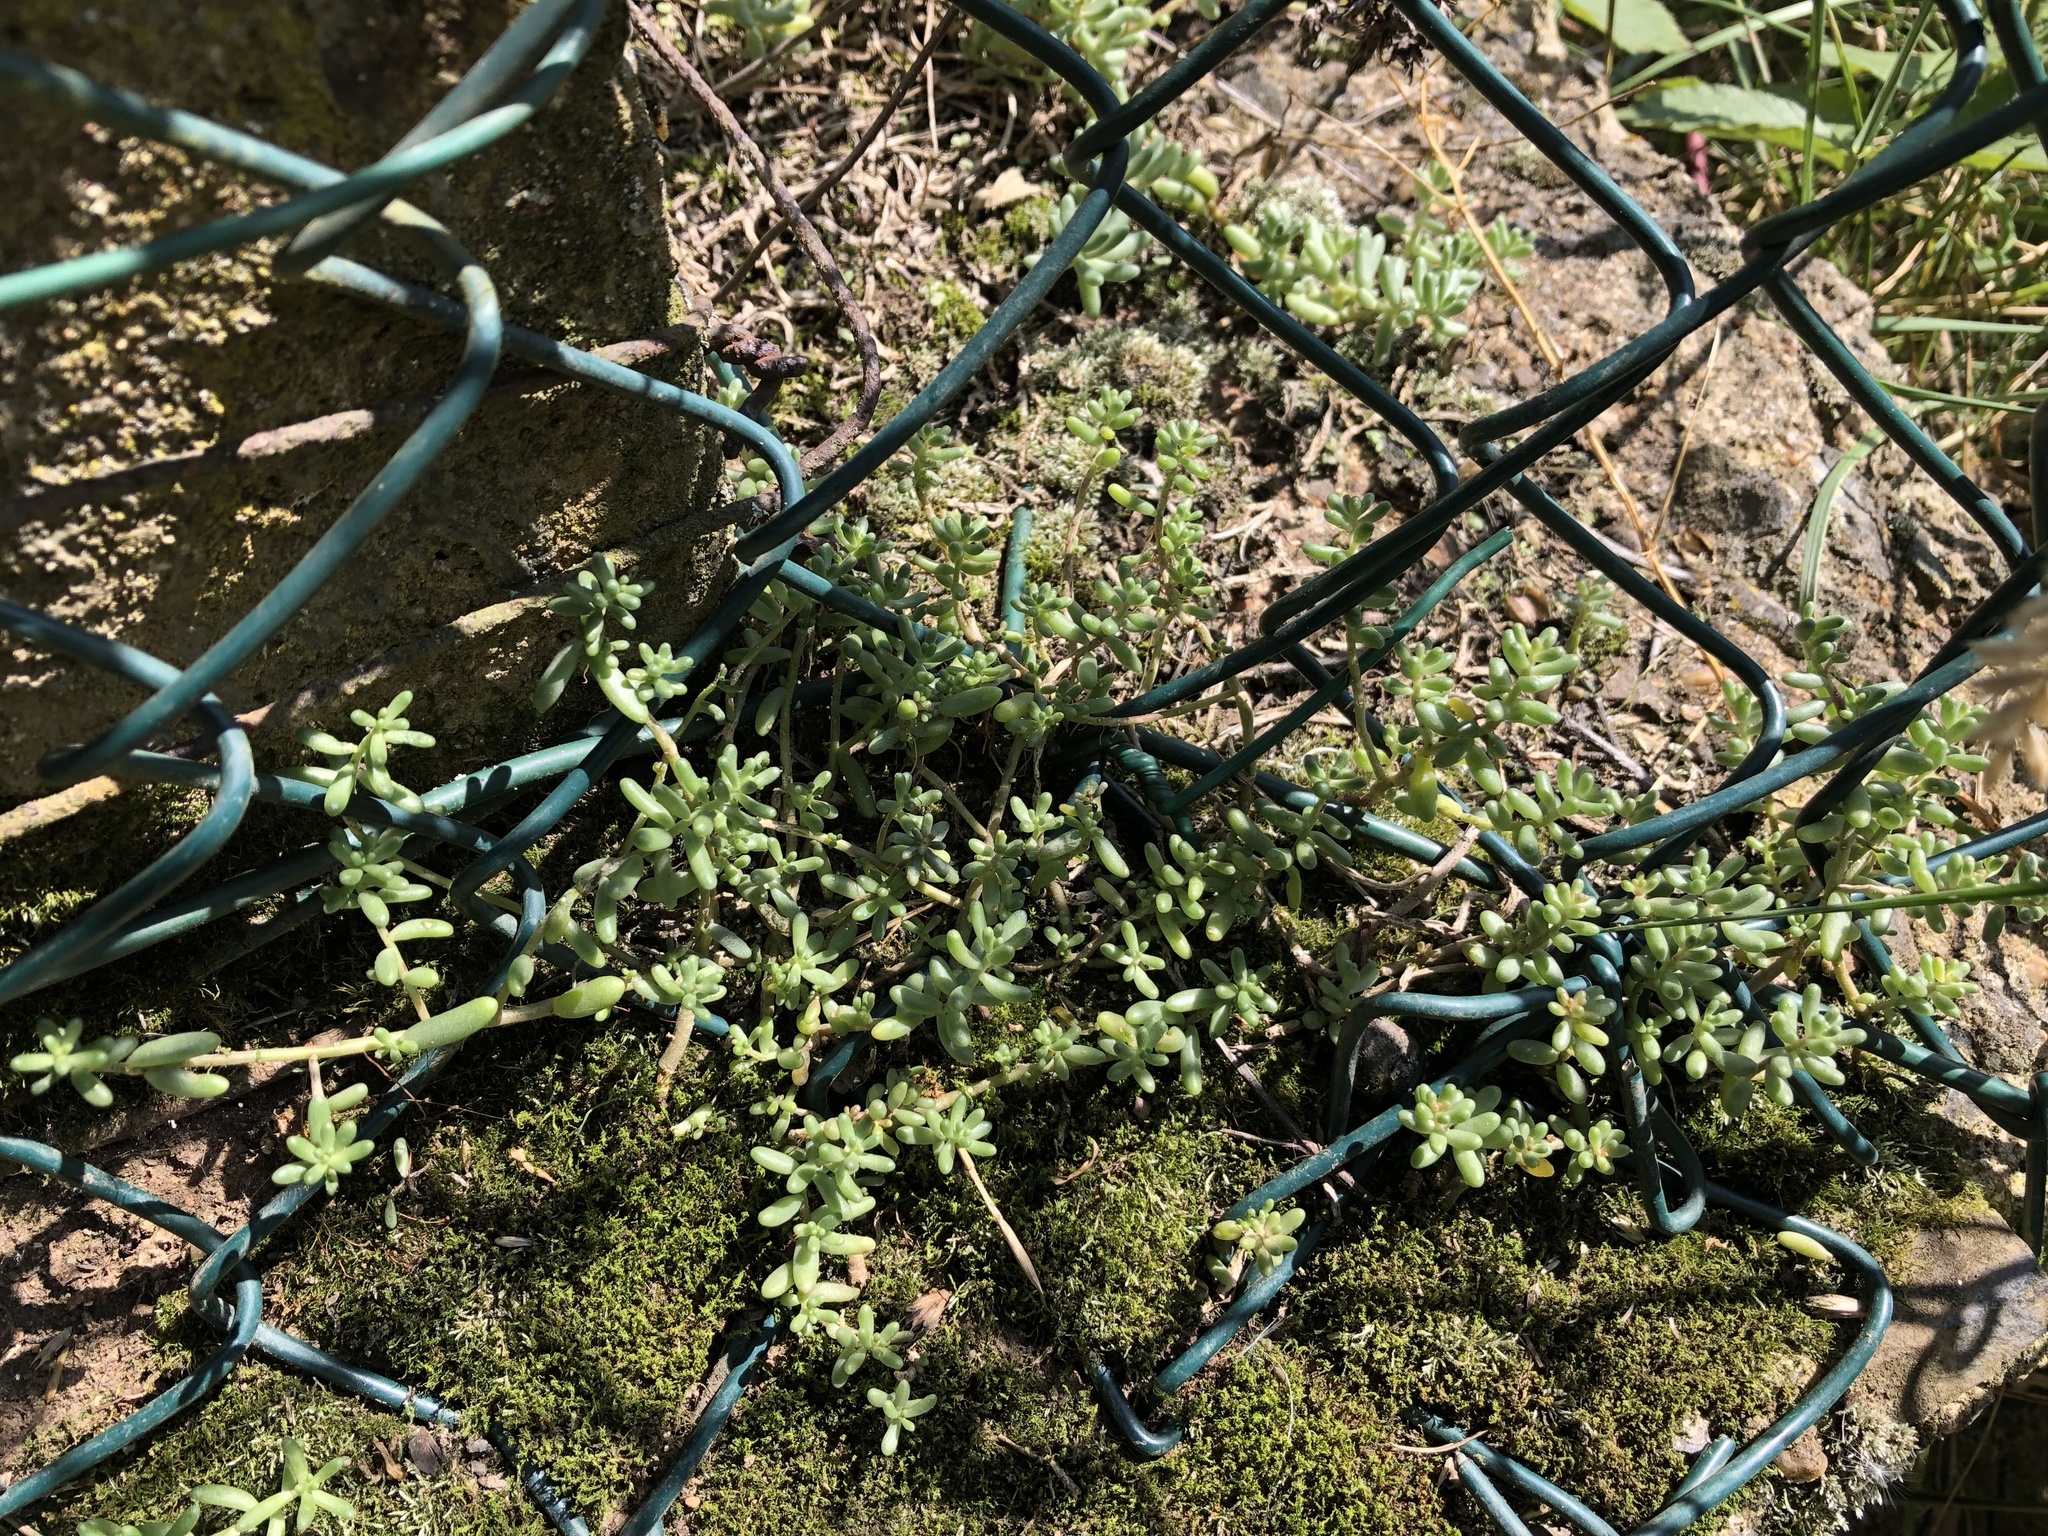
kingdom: Plantae
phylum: Tracheophyta
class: Magnoliopsida
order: Saxifragales
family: Crassulaceae
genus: Sedum
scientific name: Sedum album
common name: White stonecrop
